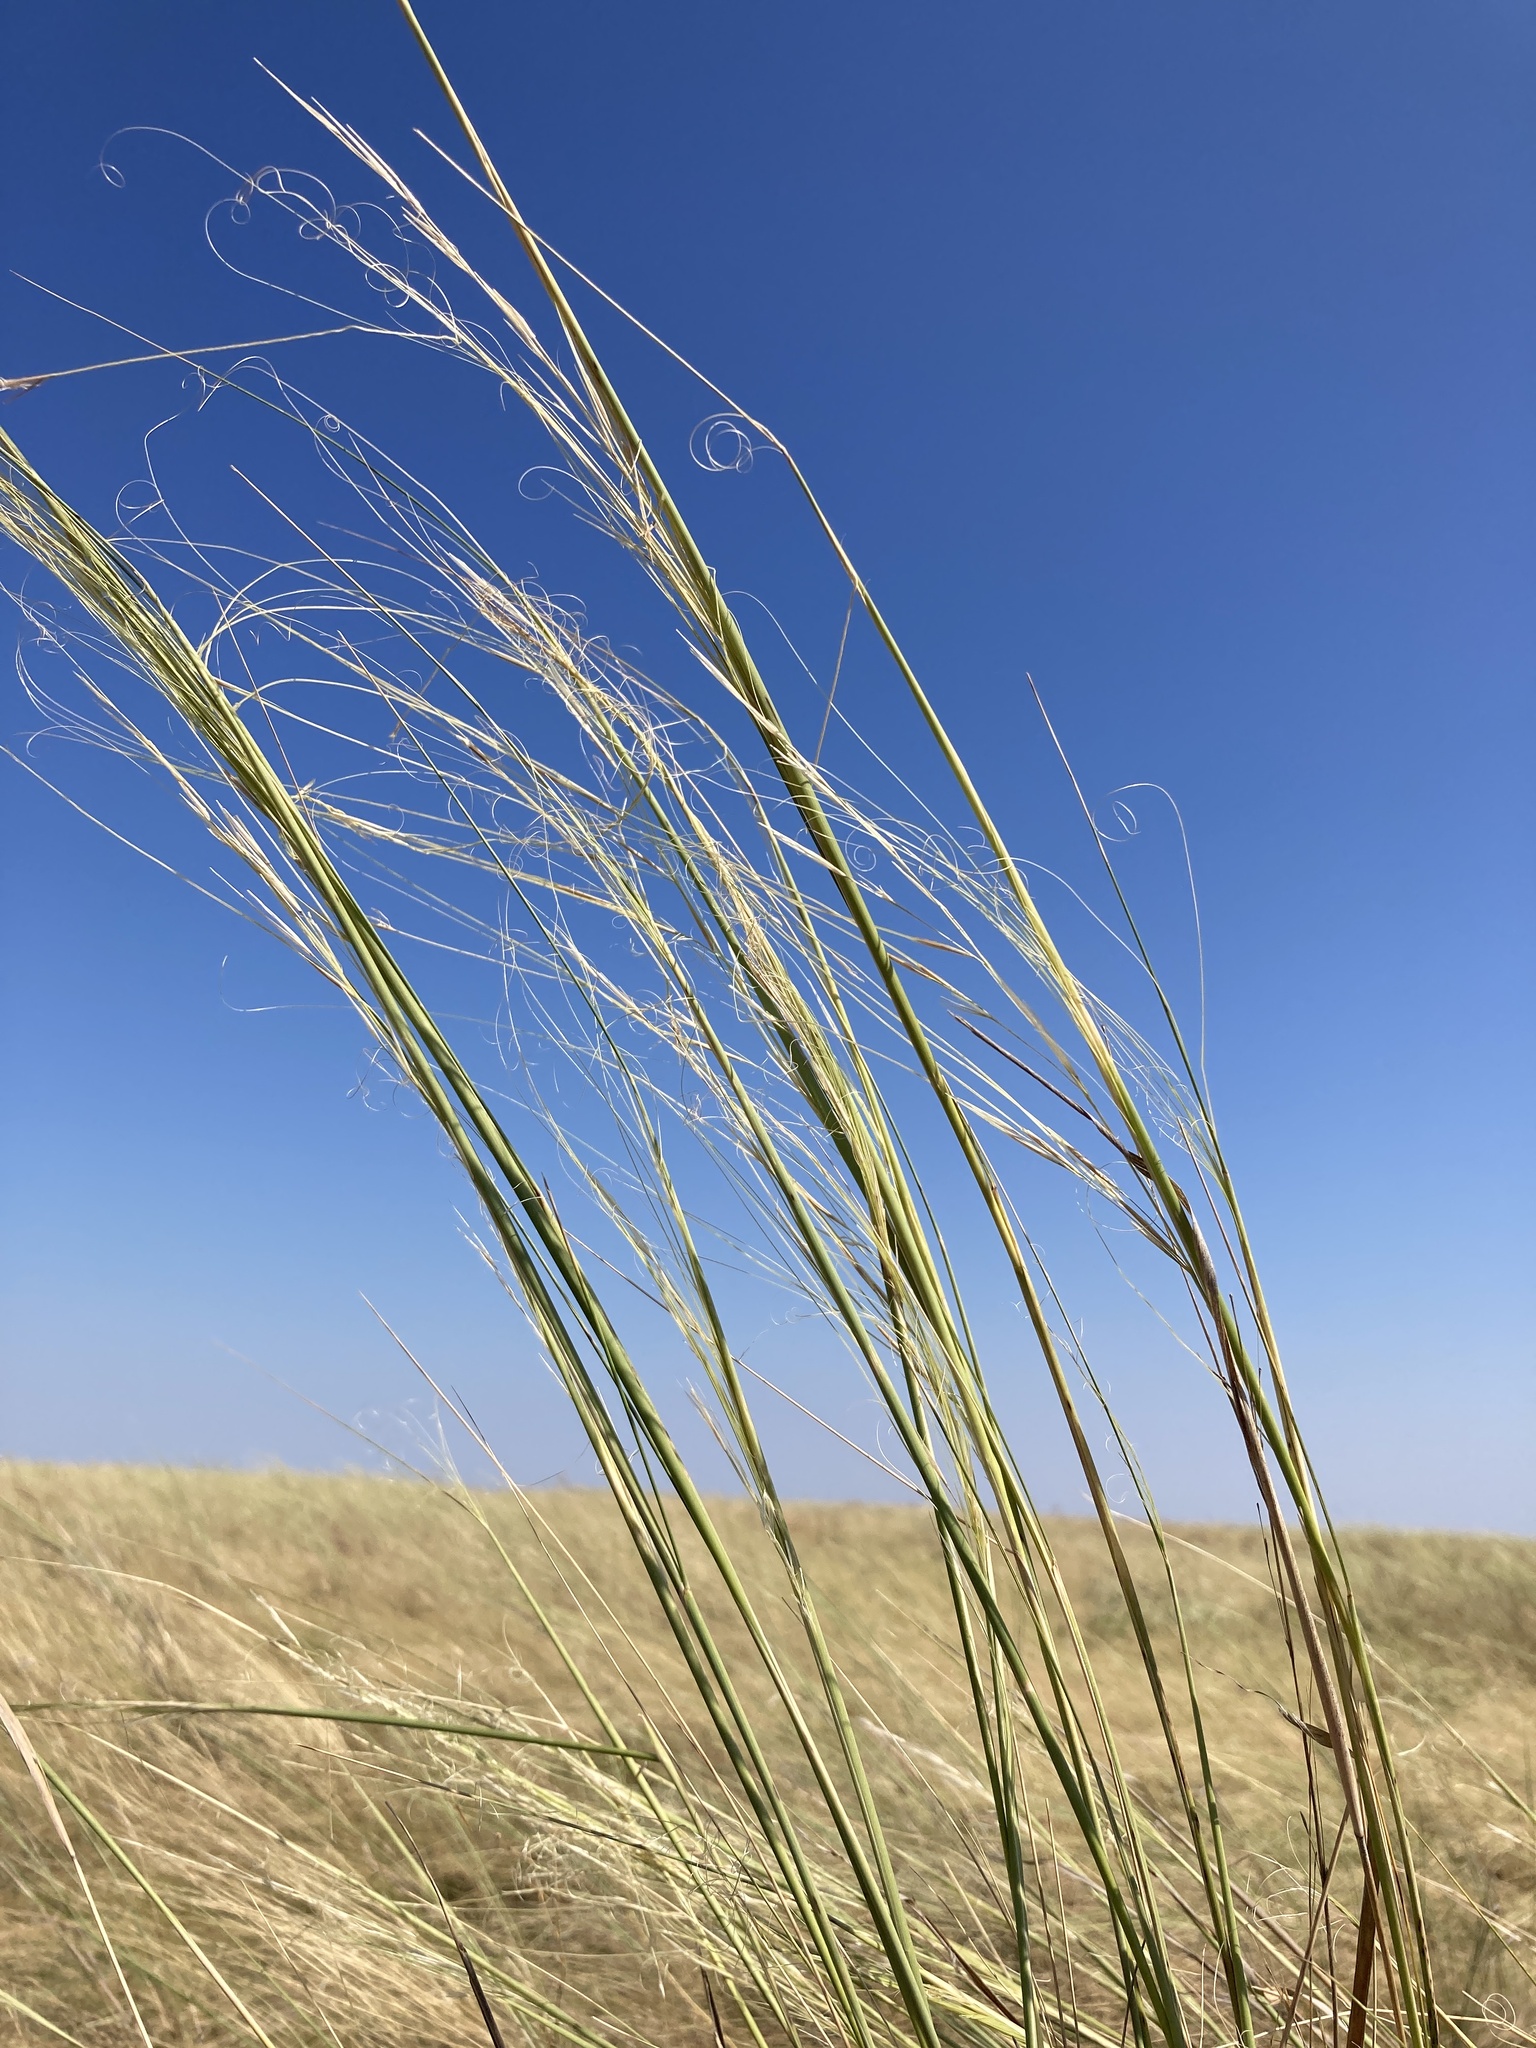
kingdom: Plantae
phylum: Tracheophyta
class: Liliopsida
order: Poales
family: Poaceae
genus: Stipa
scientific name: Stipa capillata
